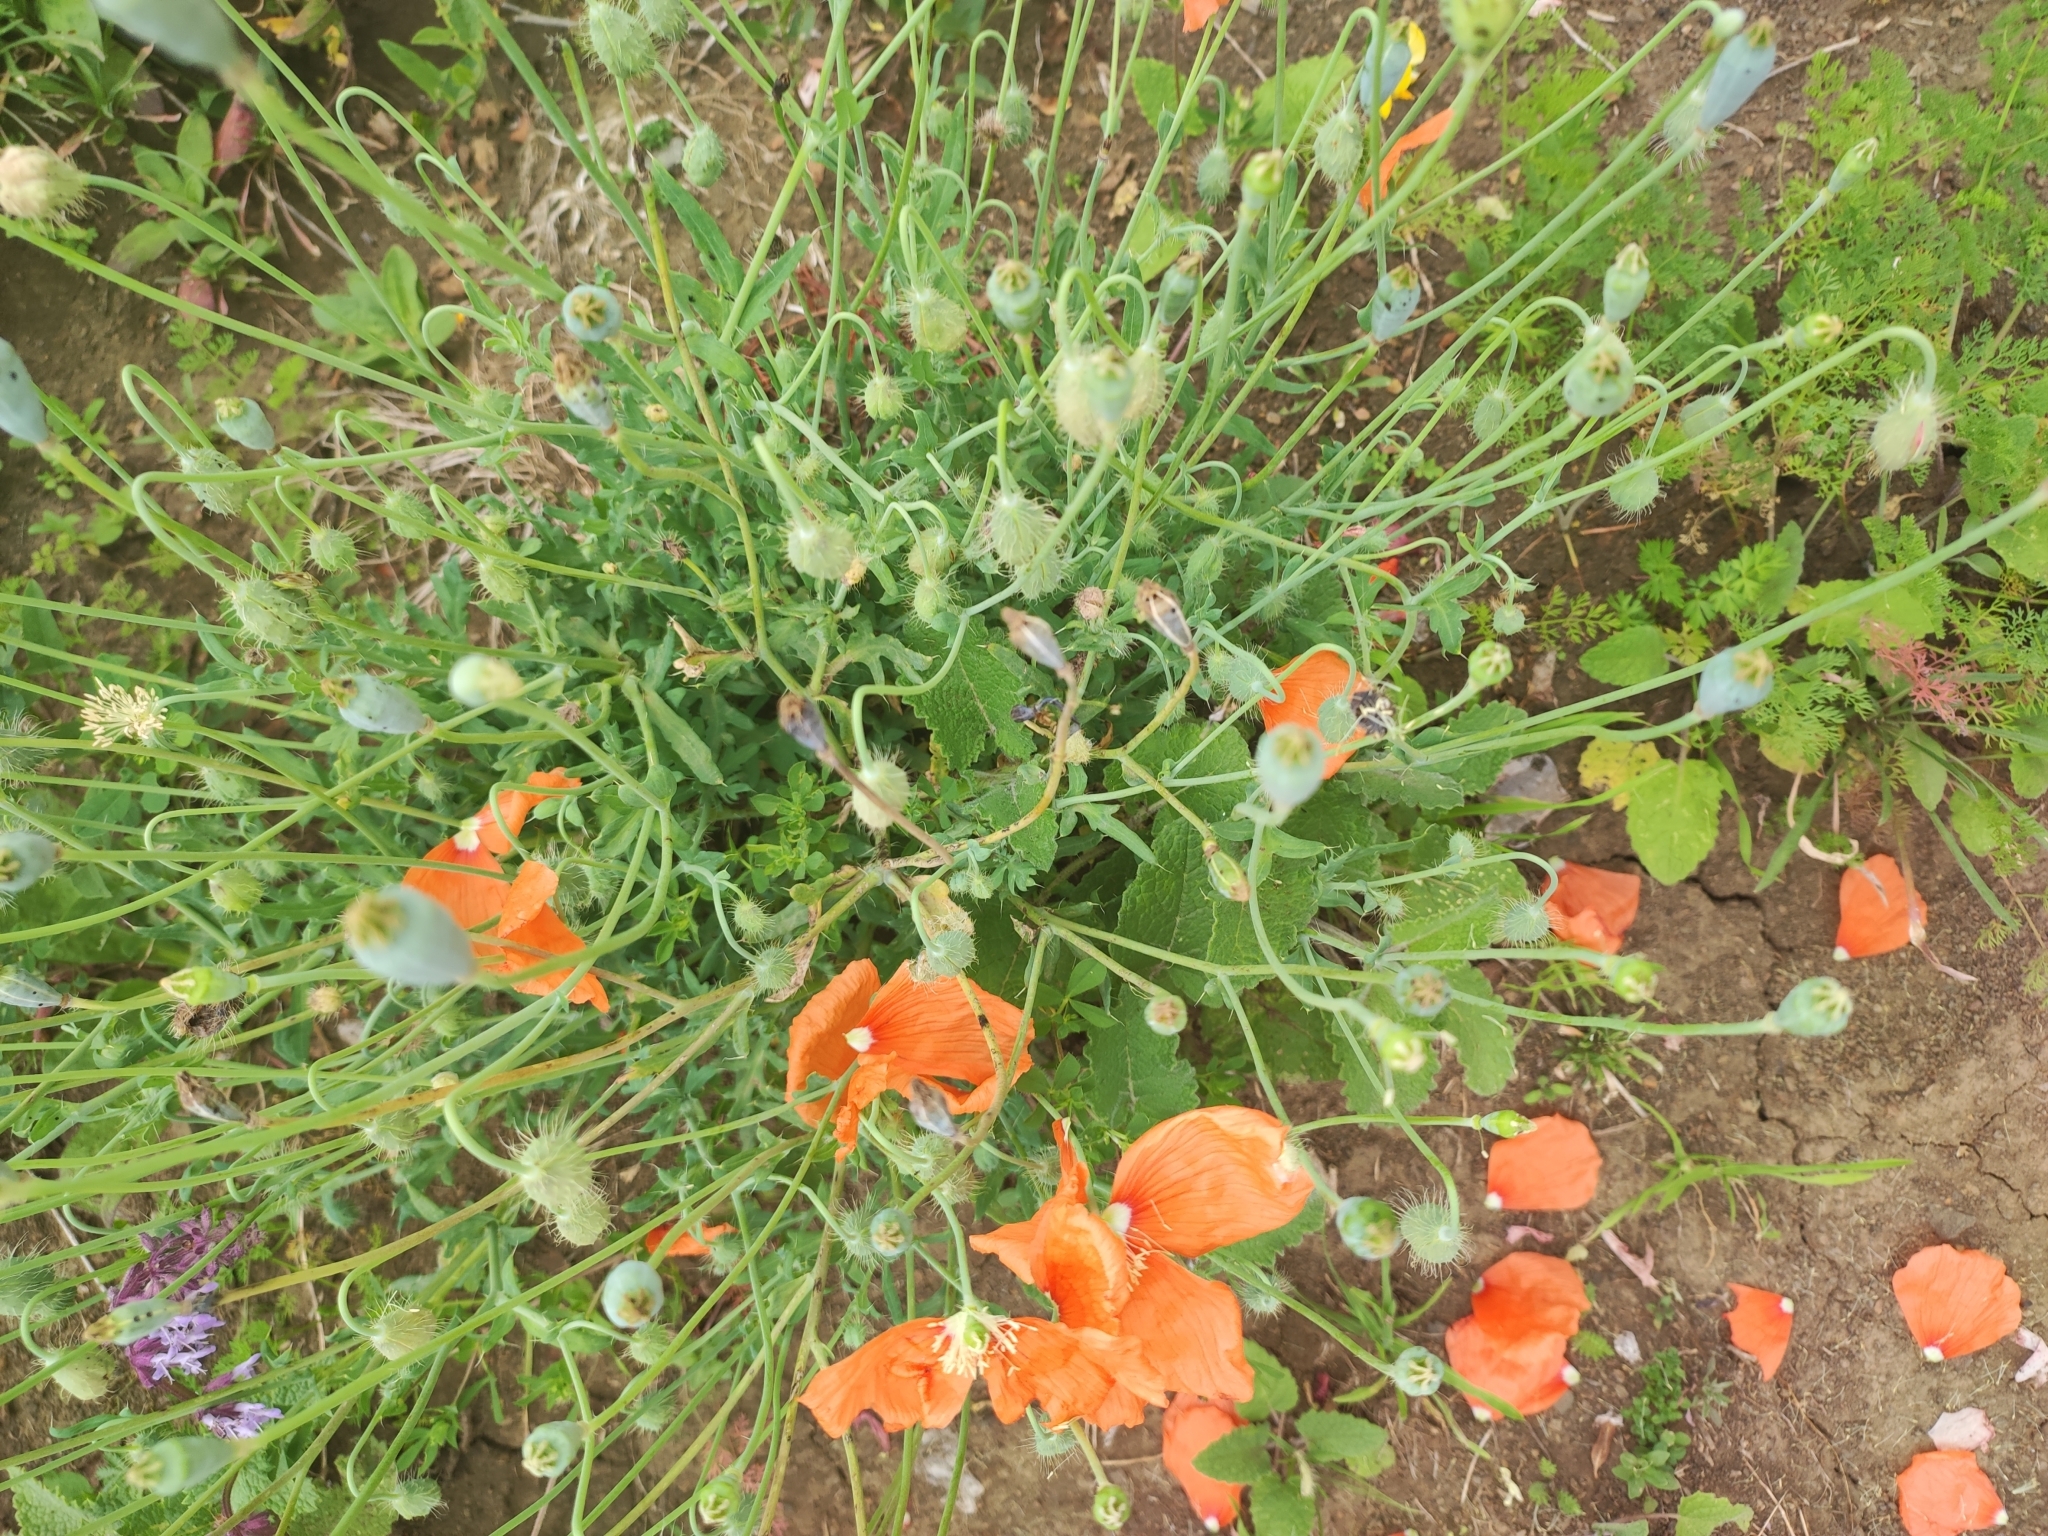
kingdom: Plantae
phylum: Tracheophyta
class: Magnoliopsida
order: Ranunculales
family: Papaveraceae
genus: Papaver
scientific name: Papaver armeniacum
